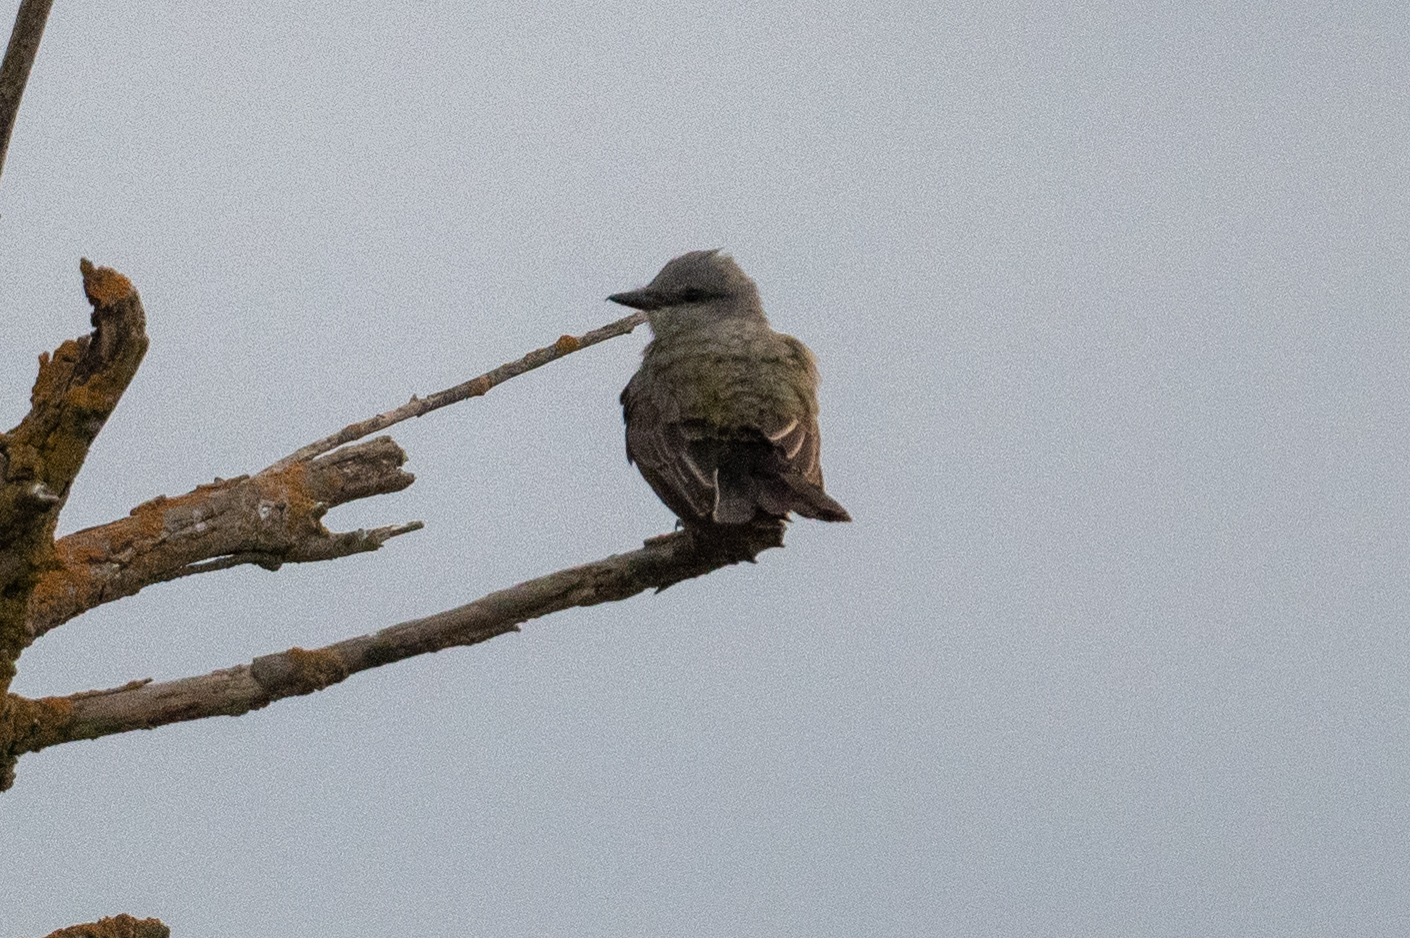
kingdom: Animalia
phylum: Chordata
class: Aves
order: Passeriformes
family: Tyrannidae
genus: Tyrannus
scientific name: Tyrannus verticalis
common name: Western kingbird
